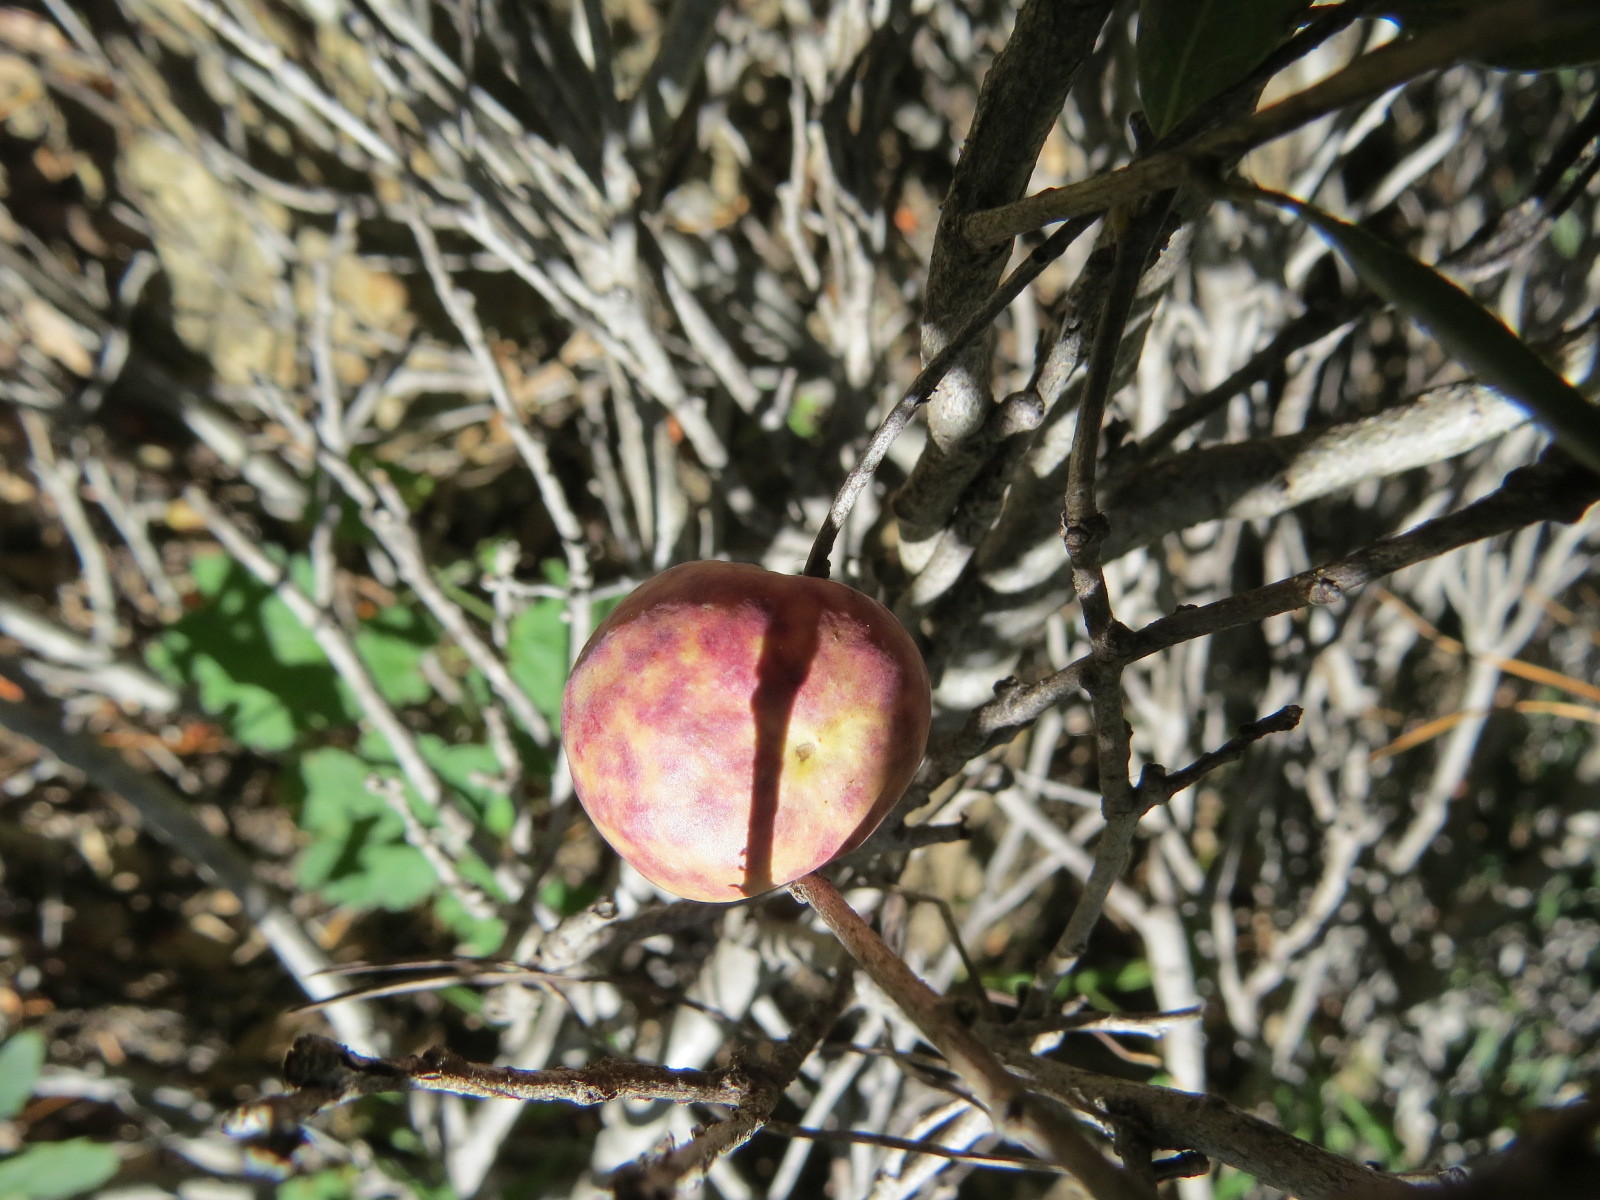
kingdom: Animalia
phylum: Arthropoda
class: Insecta
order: Hymenoptera
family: Cynipidae
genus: Andricus
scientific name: Andricus
